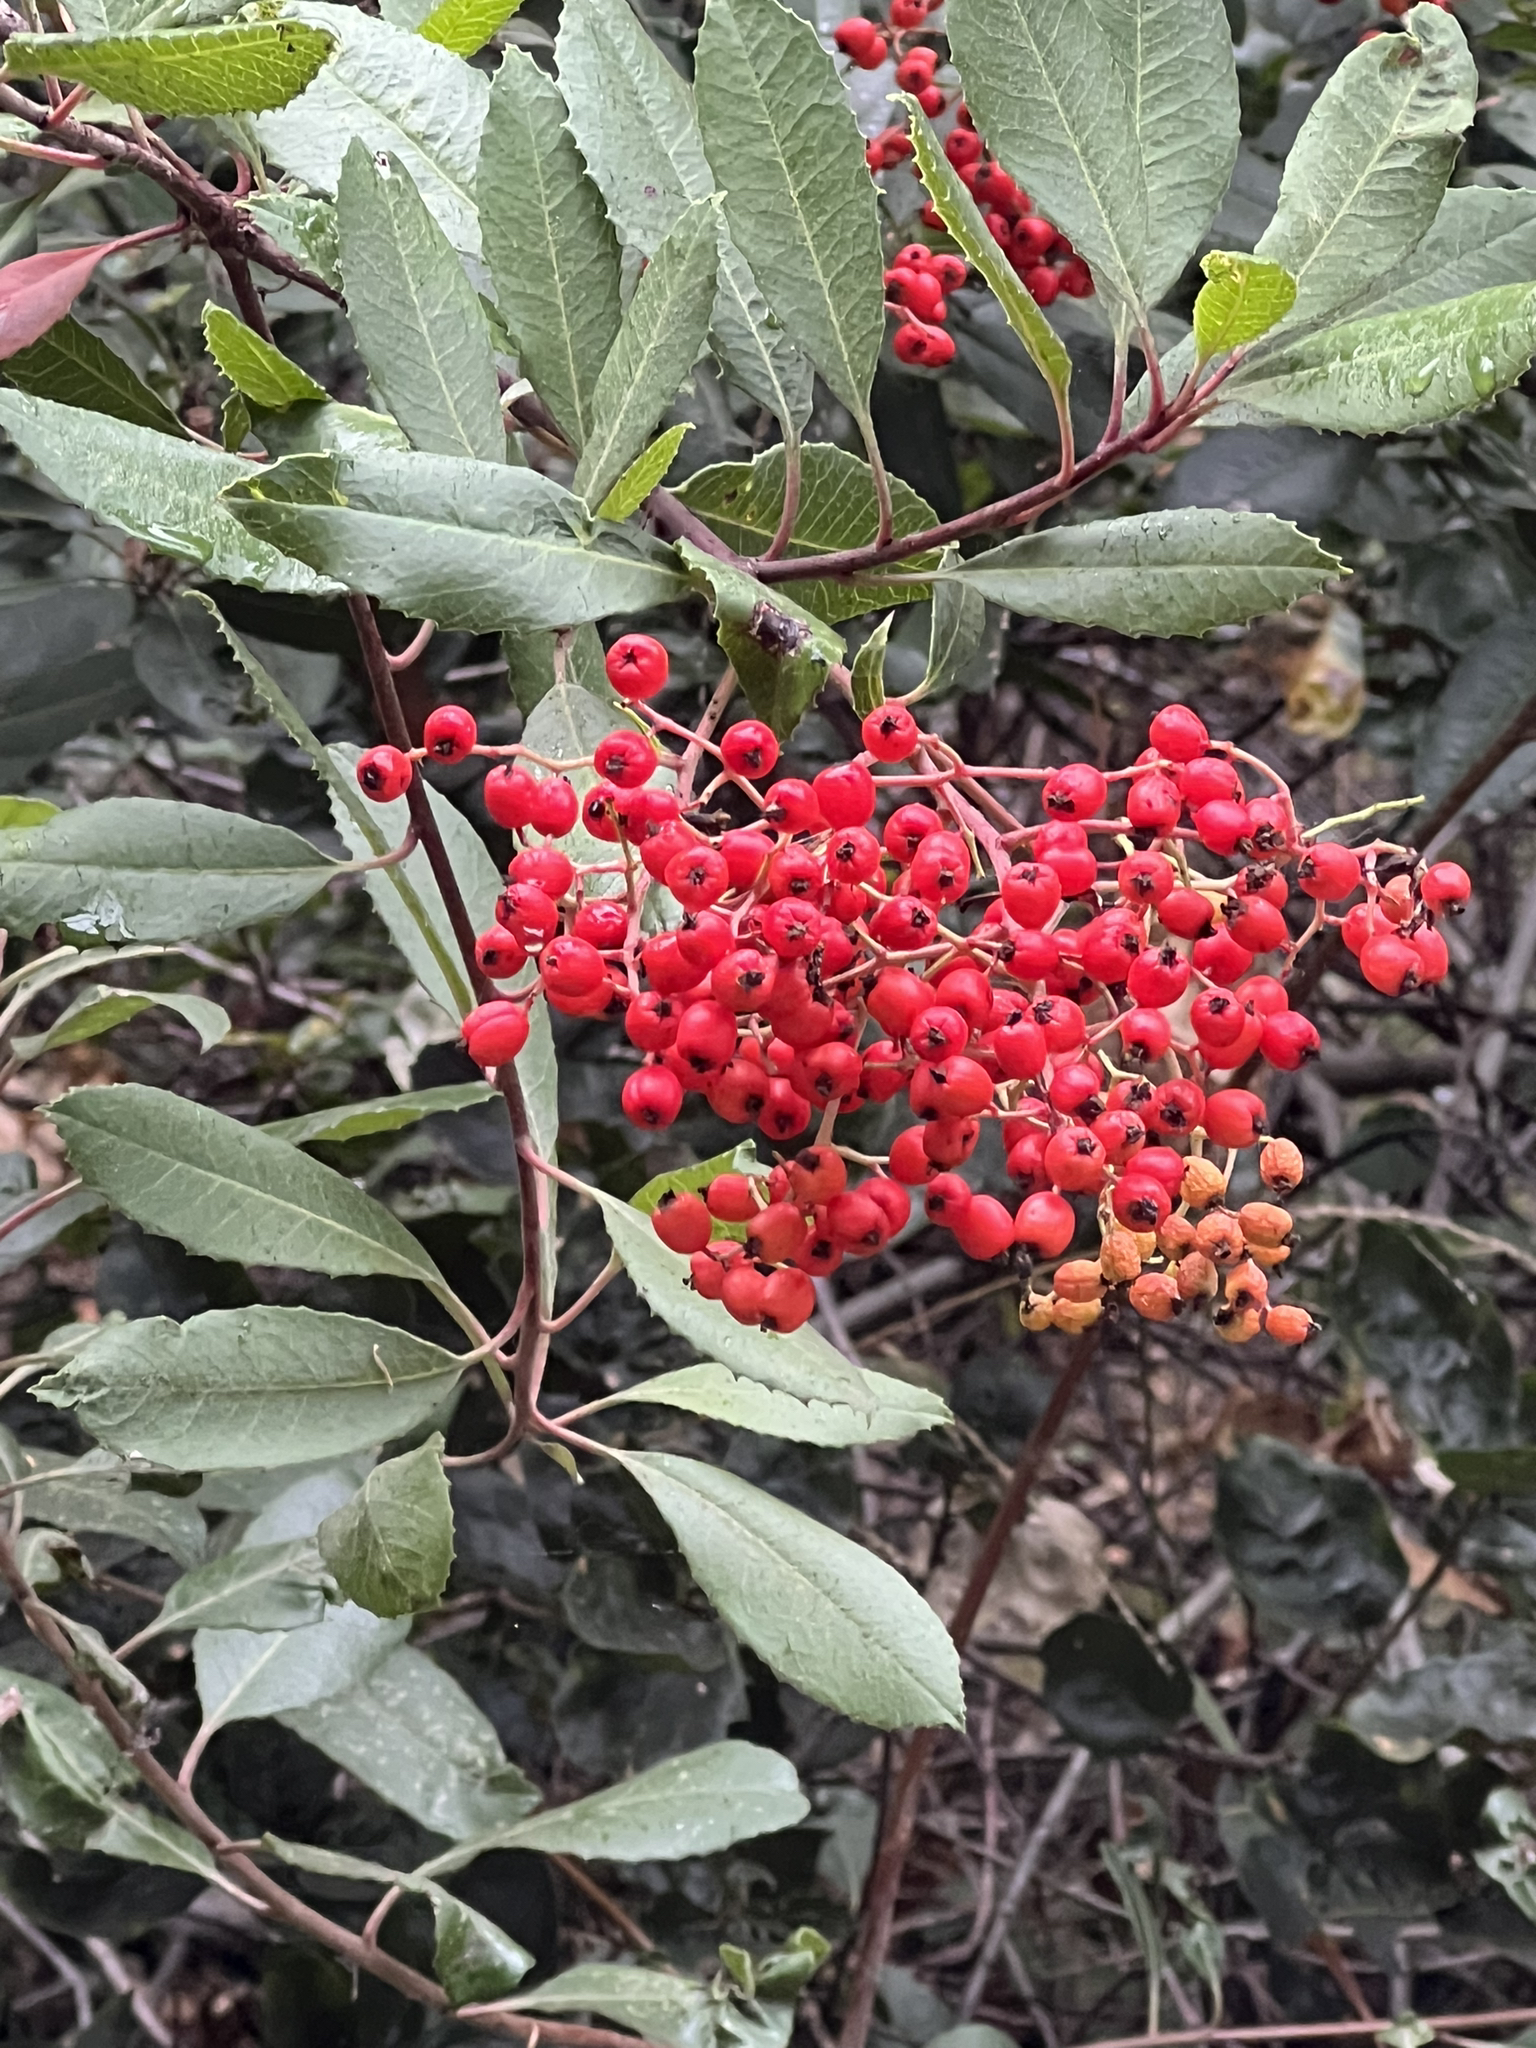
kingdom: Plantae
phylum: Tracheophyta
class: Magnoliopsida
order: Rosales
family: Rosaceae
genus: Heteromeles
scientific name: Heteromeles arbutifolia
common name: California-holly
